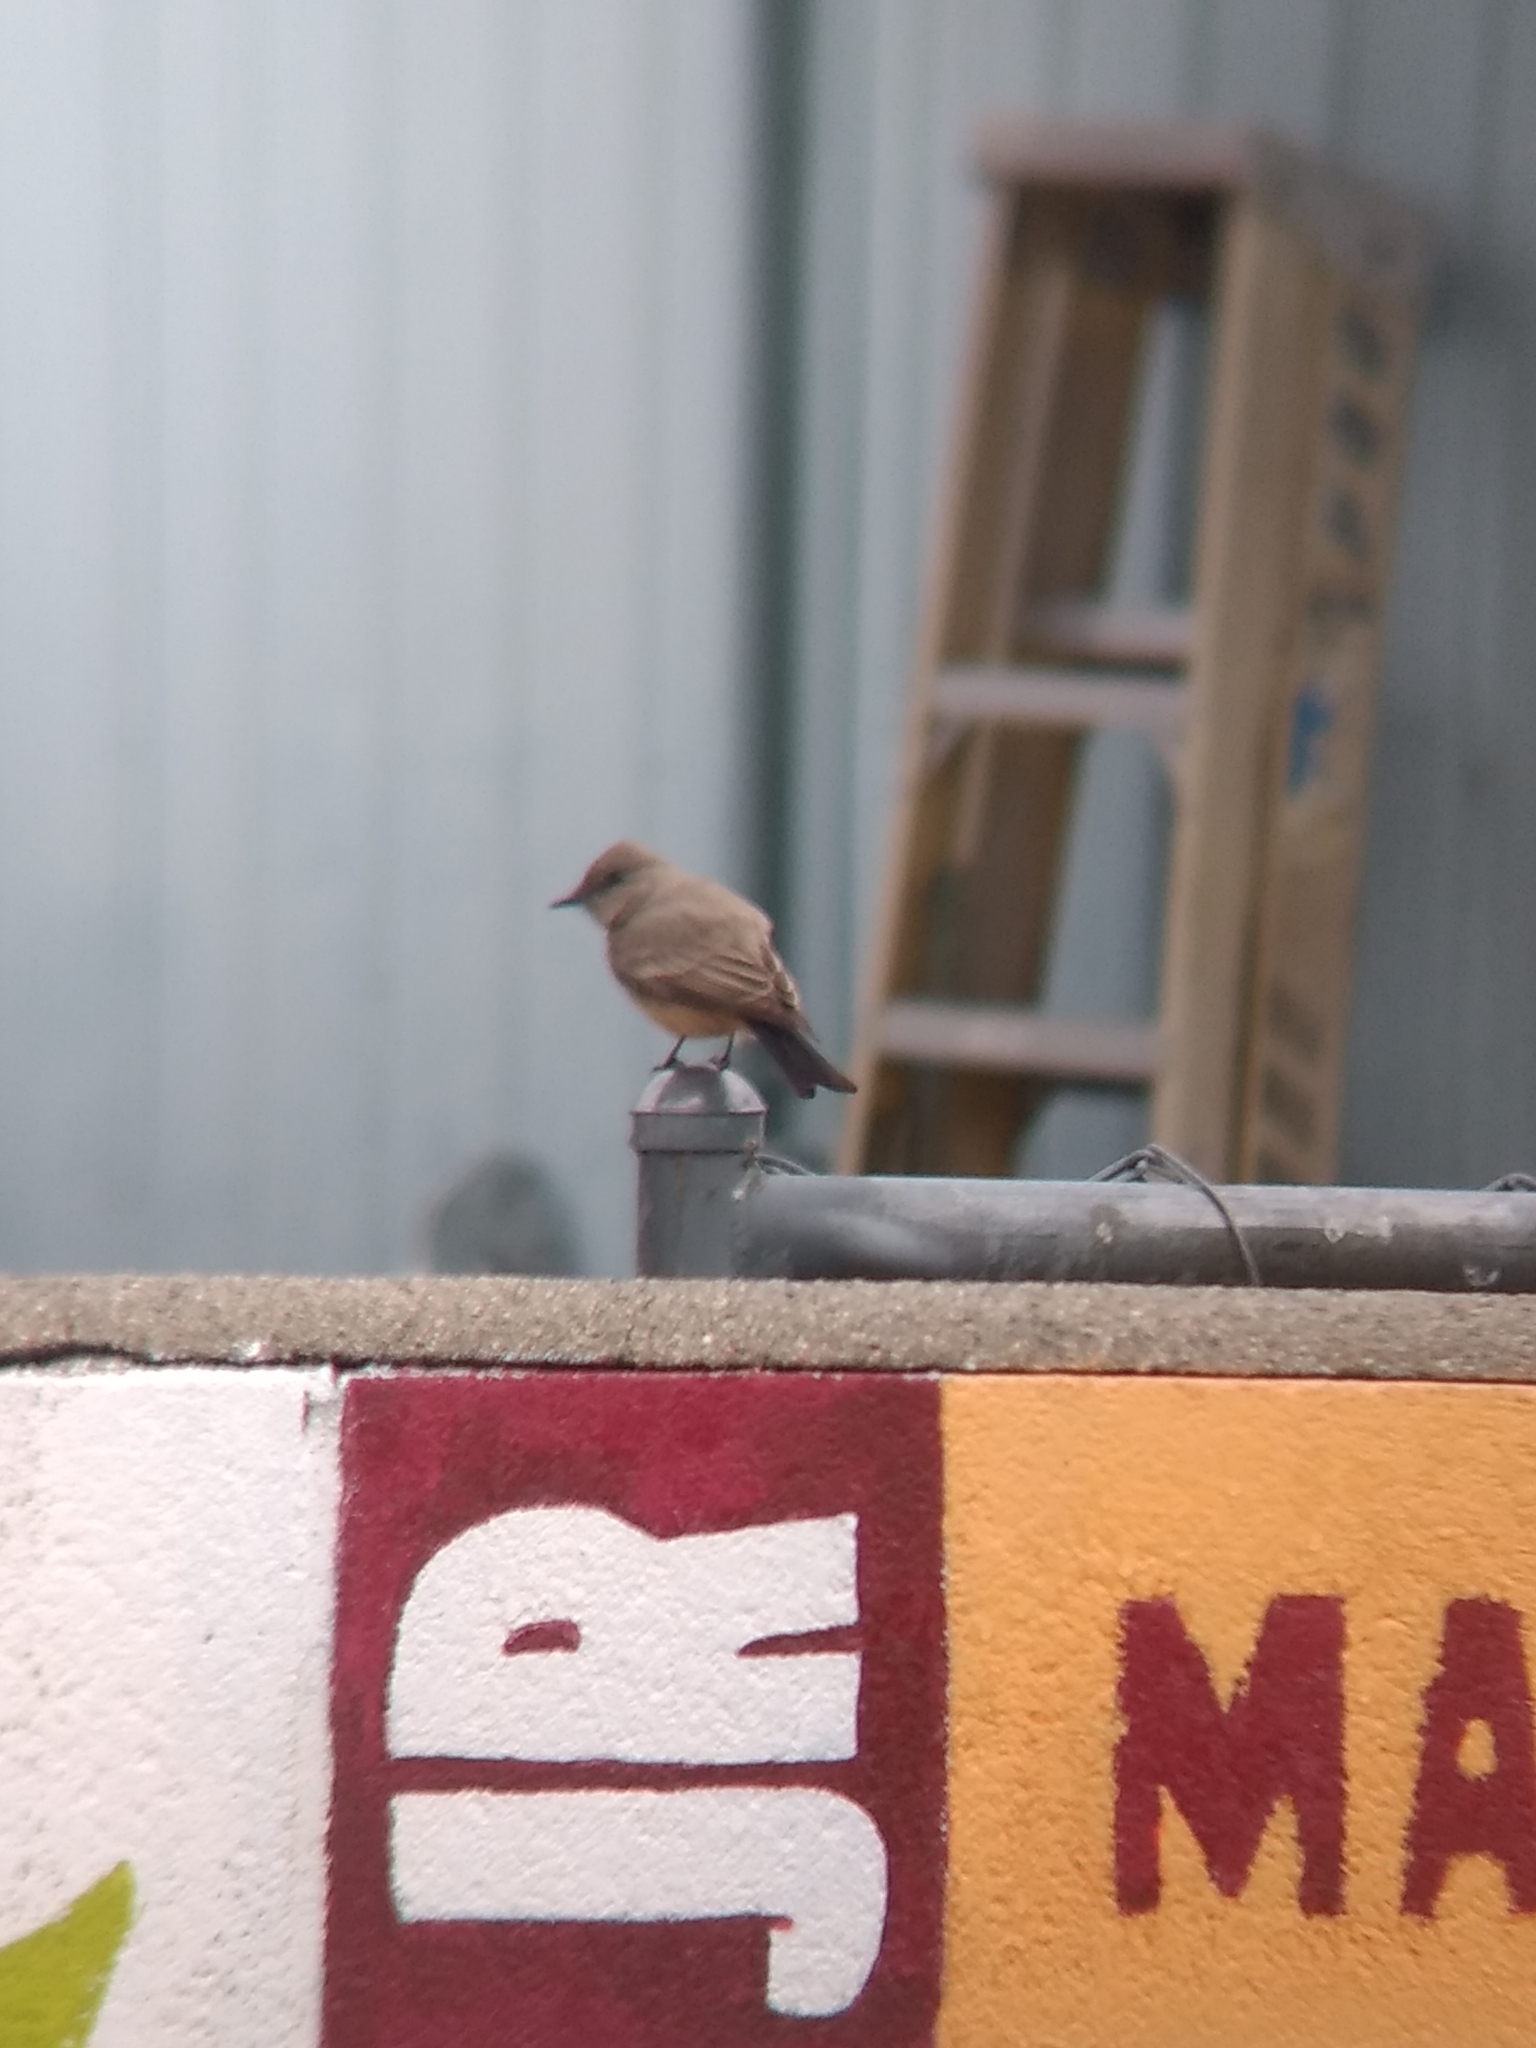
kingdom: Animalia
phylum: Chordata
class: Aves
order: Passeriformes
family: Tyrannidae
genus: Sayornis
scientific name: Sayornis saya
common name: Say's phoebe
